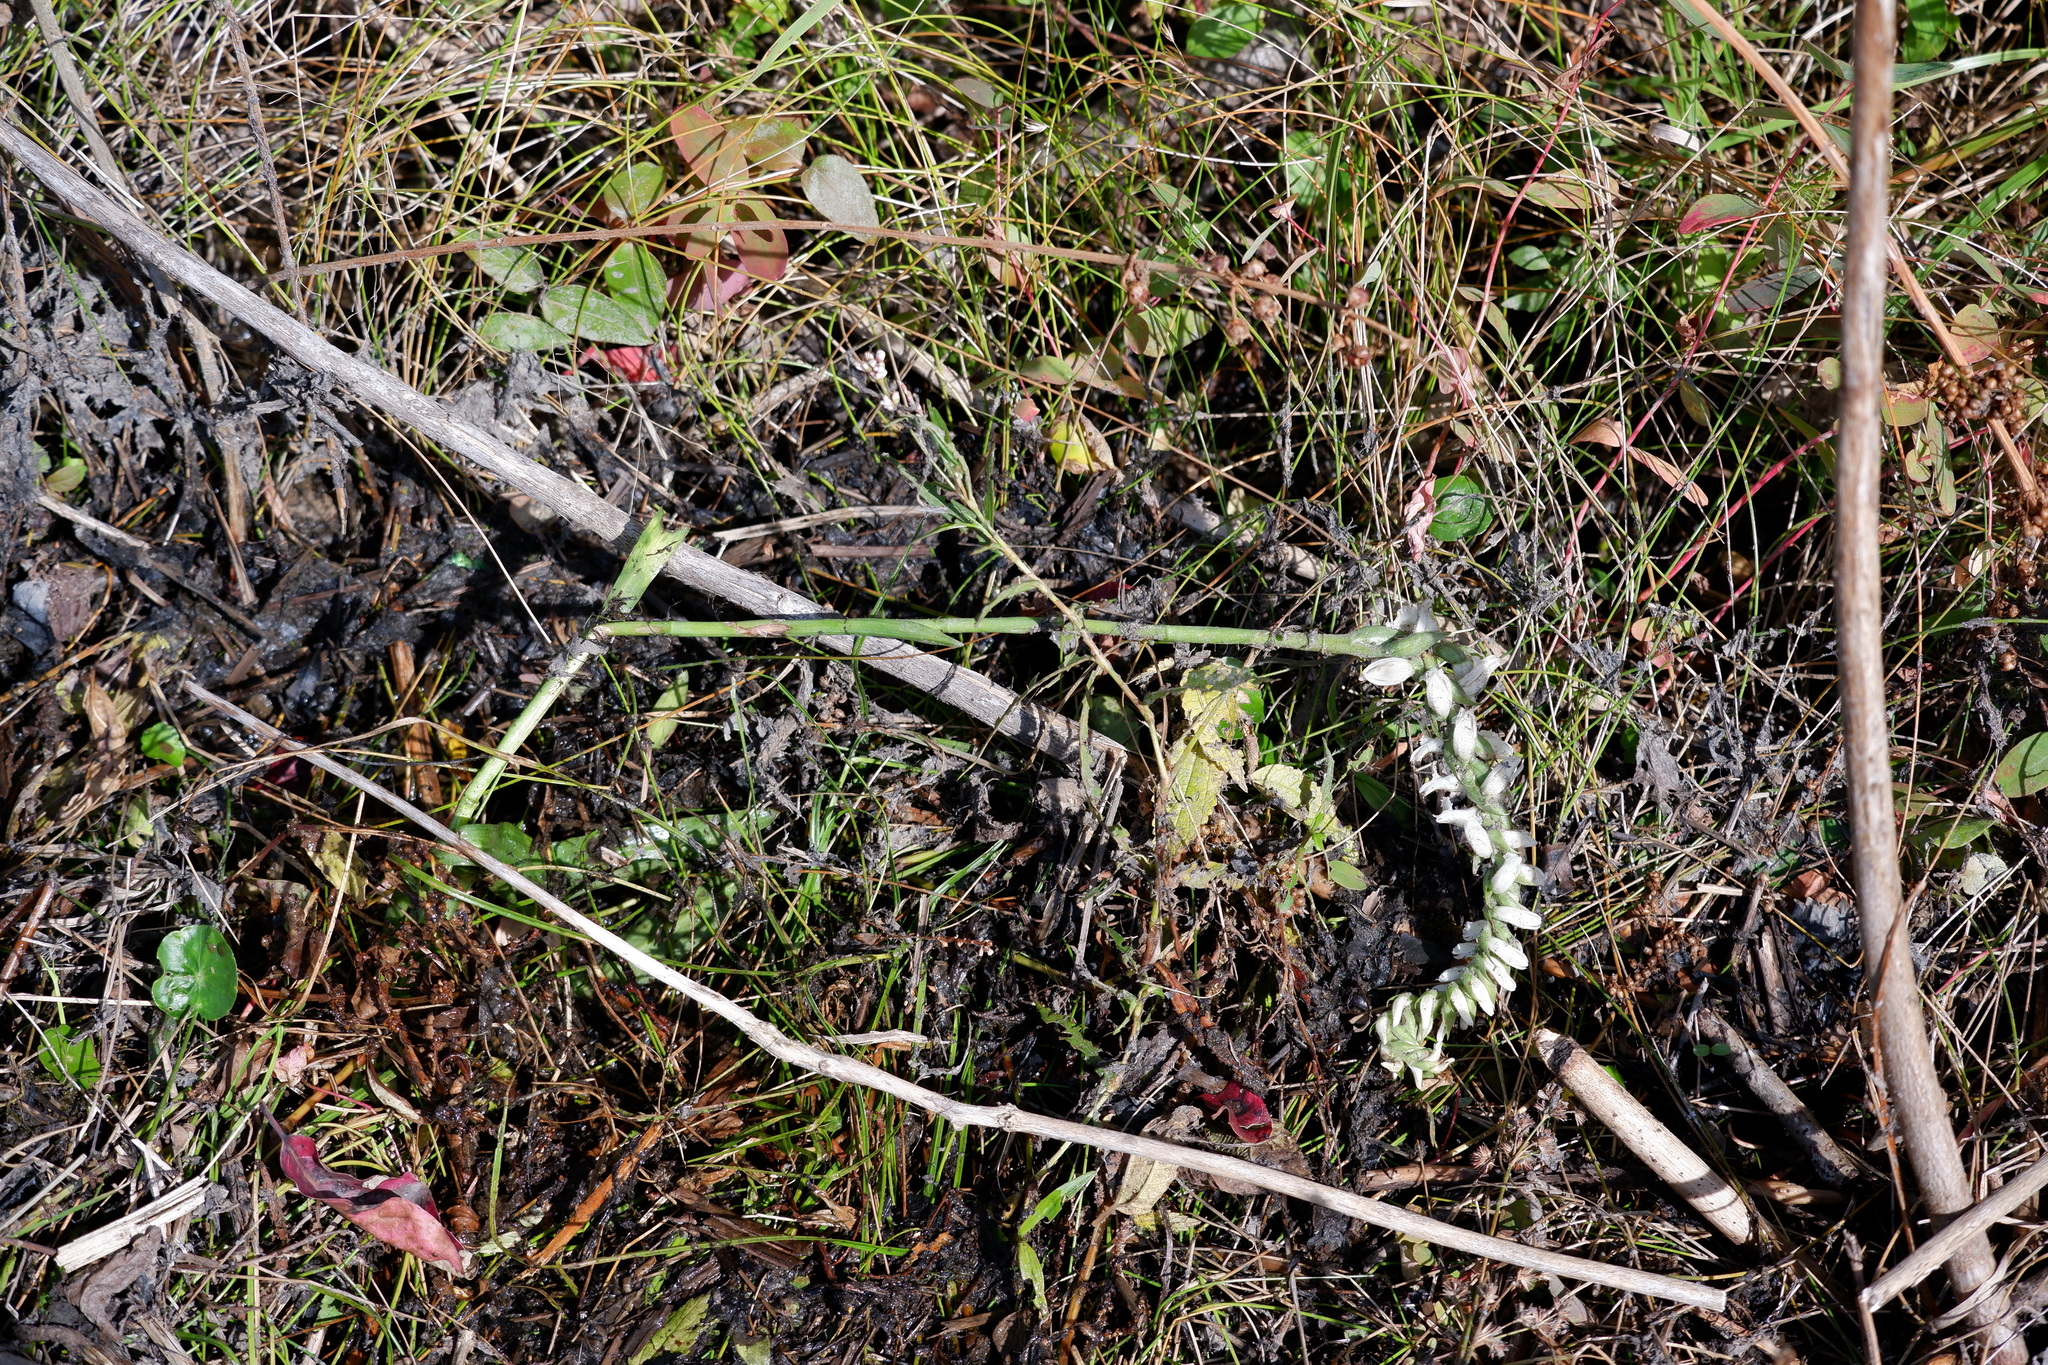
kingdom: Plantae
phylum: Tracheophyta
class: Liliopsida
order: Asparagales
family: Orchidaceae
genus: Spiranthes
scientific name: Spiranthes bightensis
